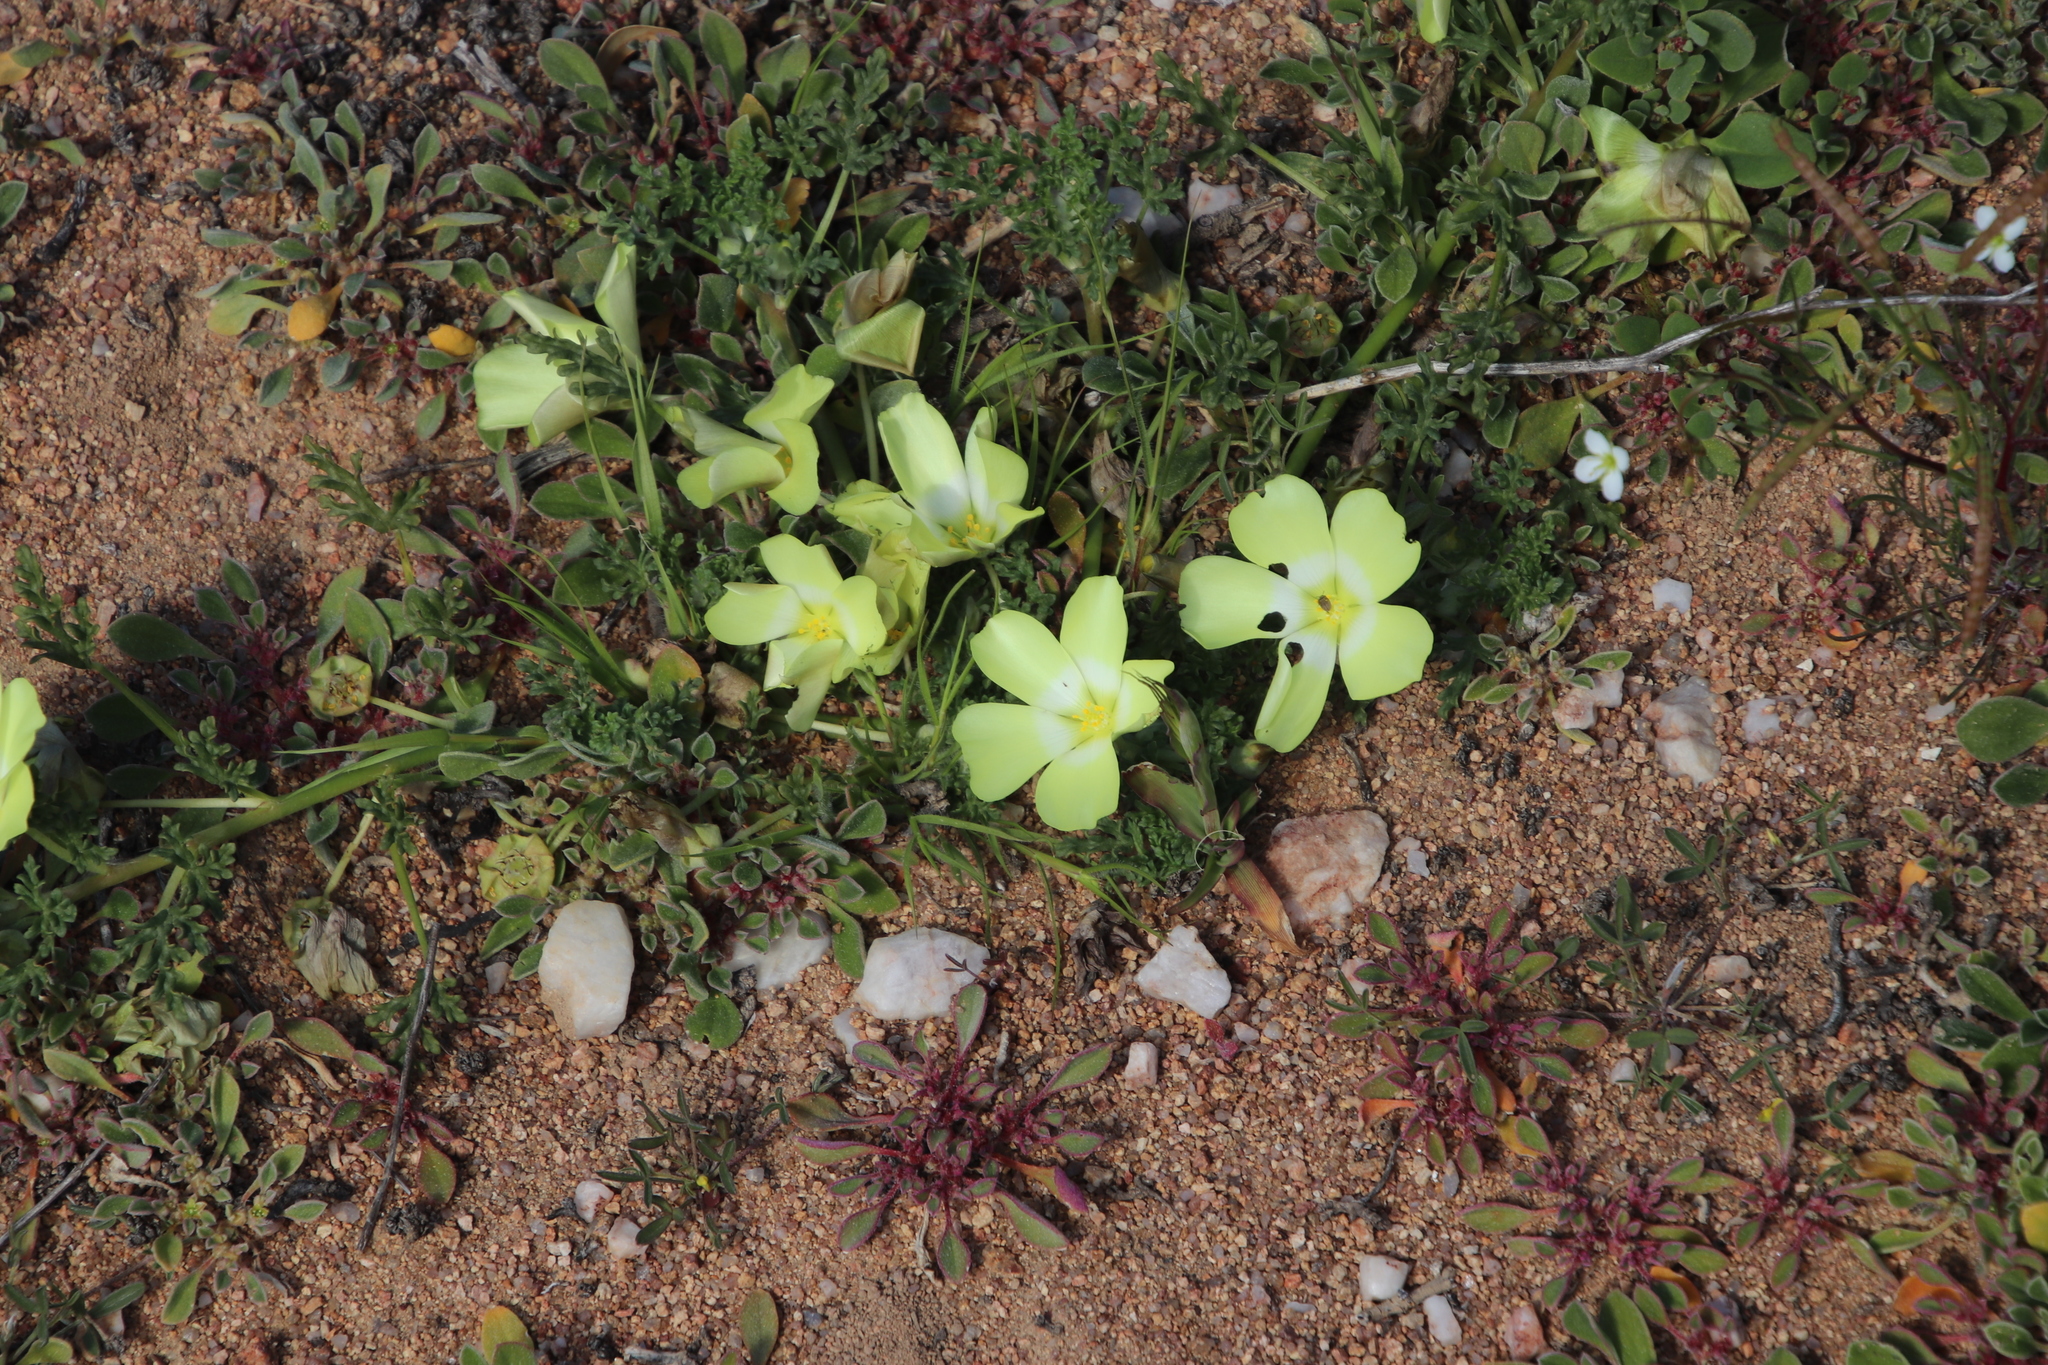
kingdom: Plantae
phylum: Tracheophyta
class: Magnoliopsida
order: Malvales
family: Neuradaceae
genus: Grielum
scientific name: Grielum humifusum
